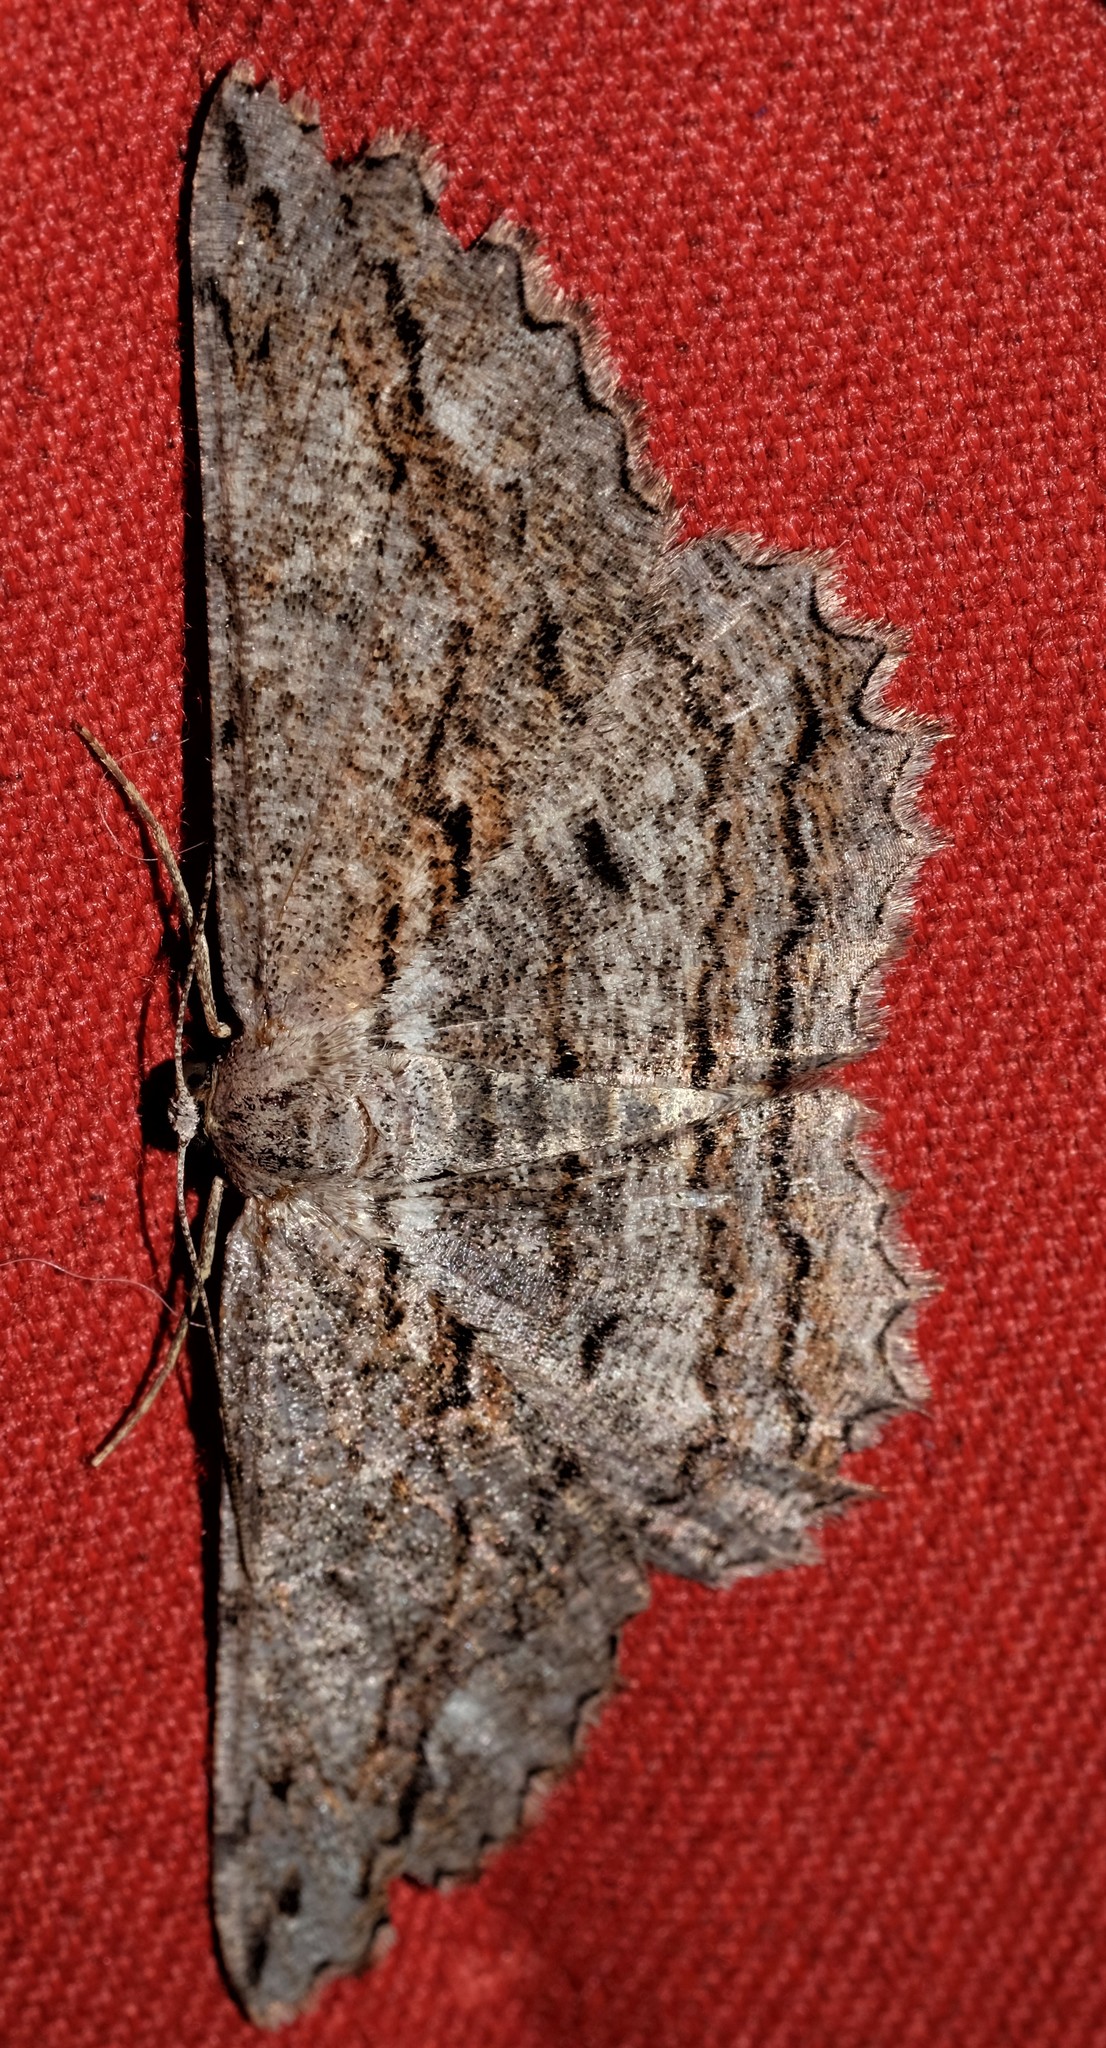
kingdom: Animalia
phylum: Arthropoda
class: Insecta
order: Lepidoptera
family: Geometridae
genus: Scioglyptis
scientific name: Scioglyptis lyciaria
